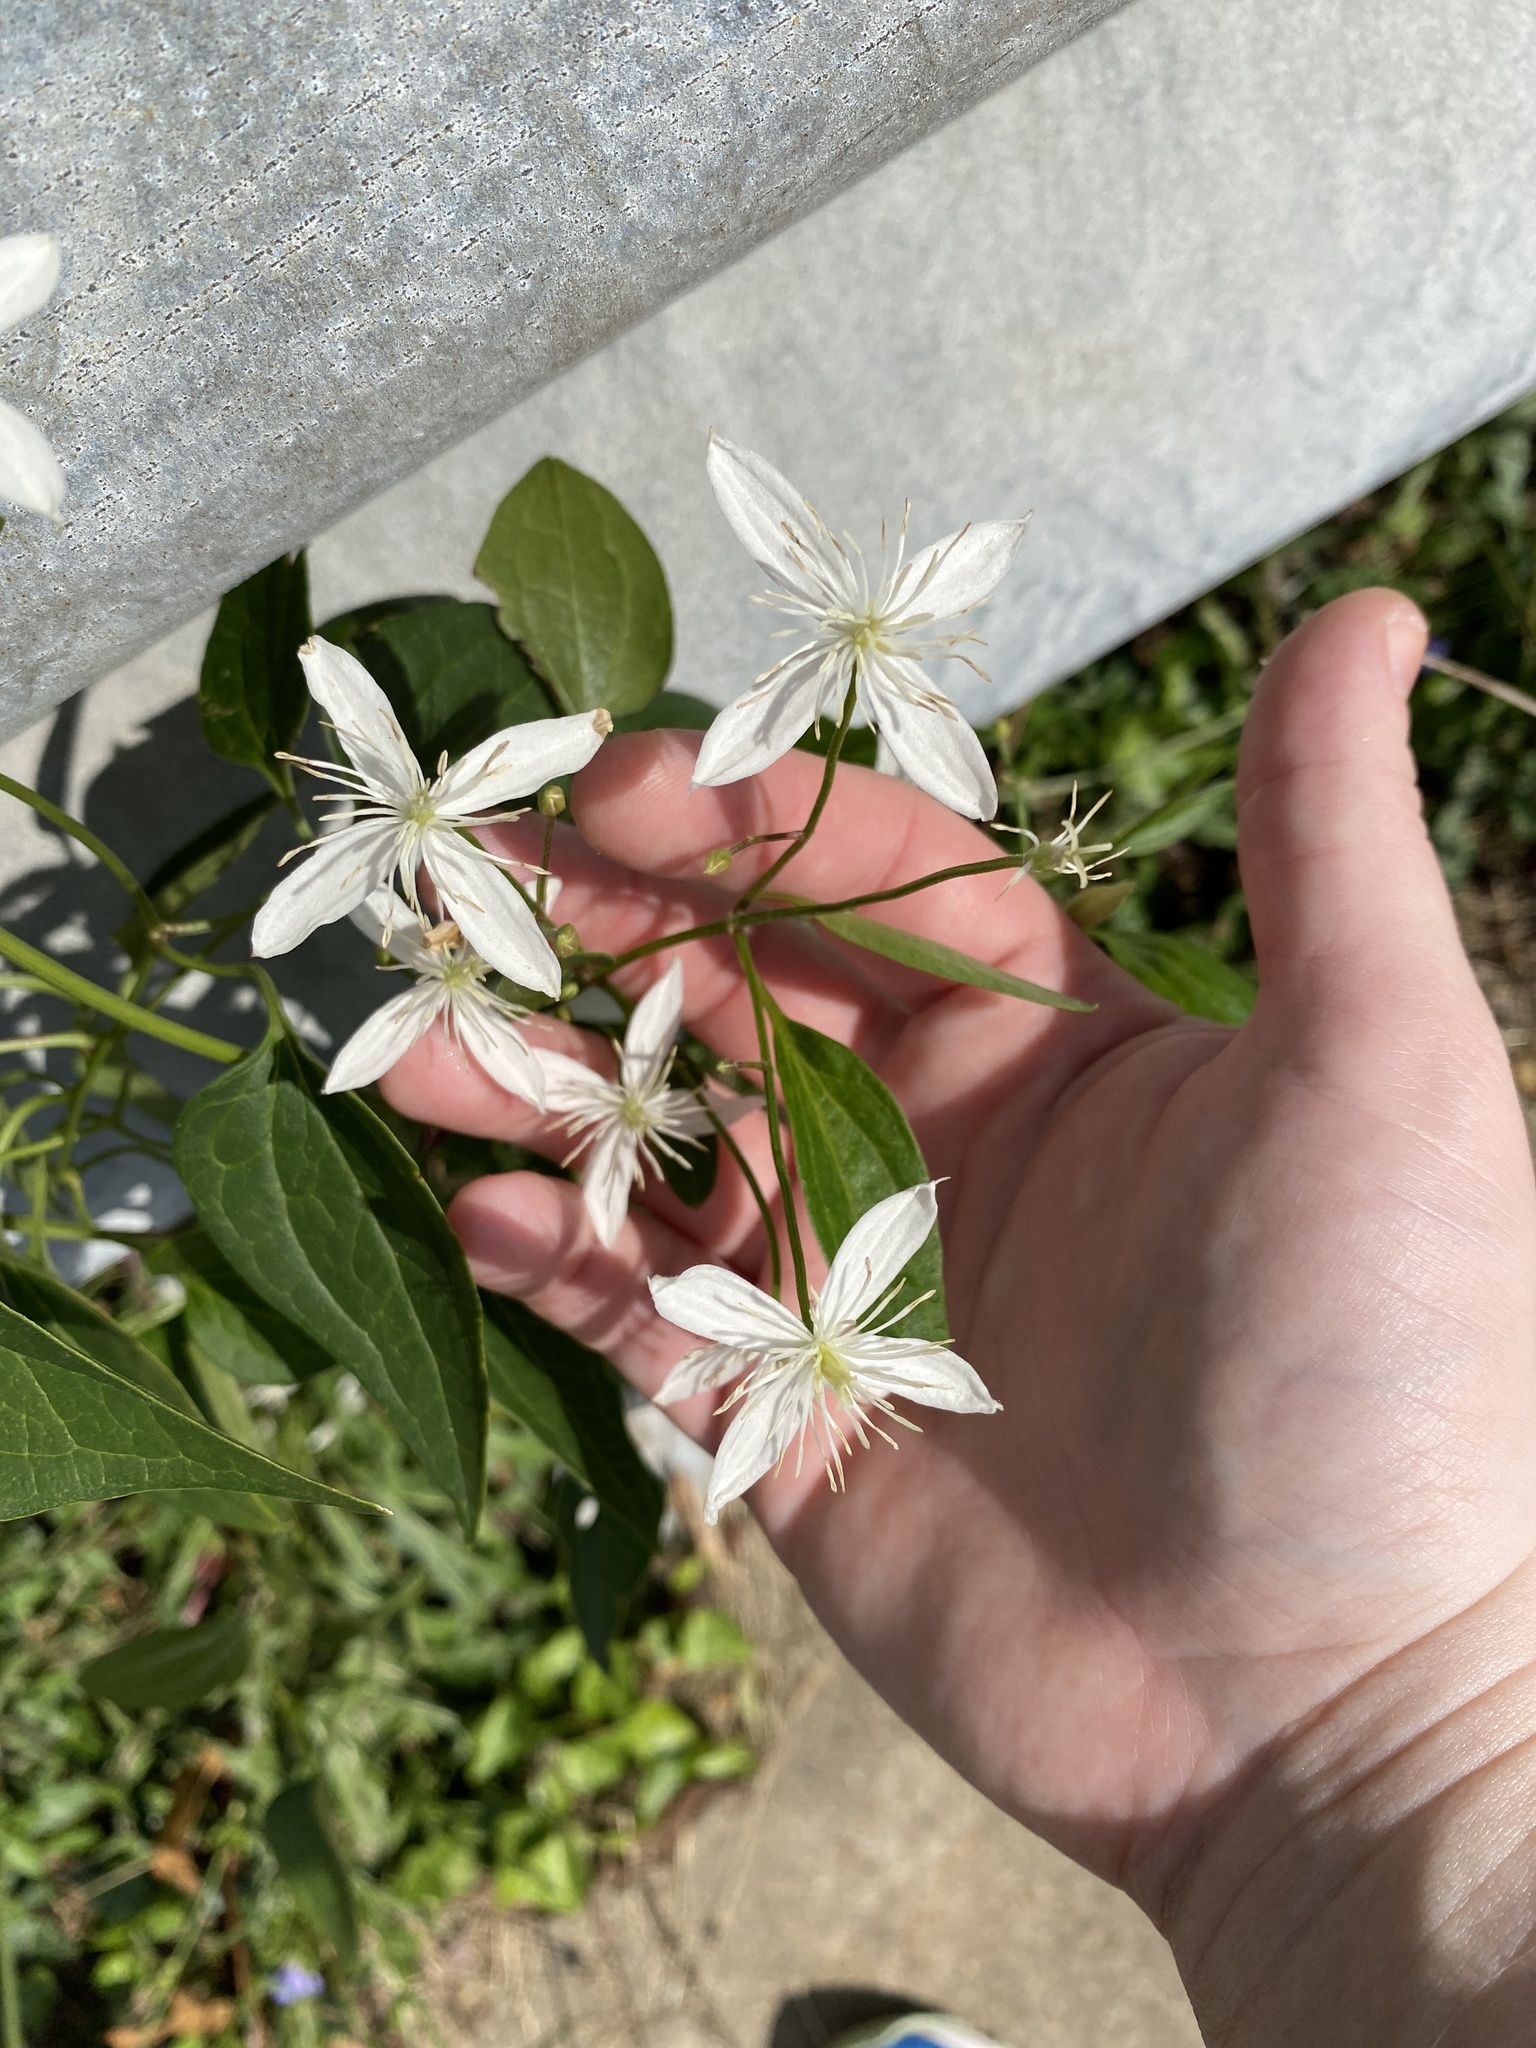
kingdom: Plantae
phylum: Tracheophyta
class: Magnoliopsida
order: Ranunculales
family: Ranunculaceae
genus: Clematis
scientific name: Clematis terniflora
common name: Sweet autumn clematis
